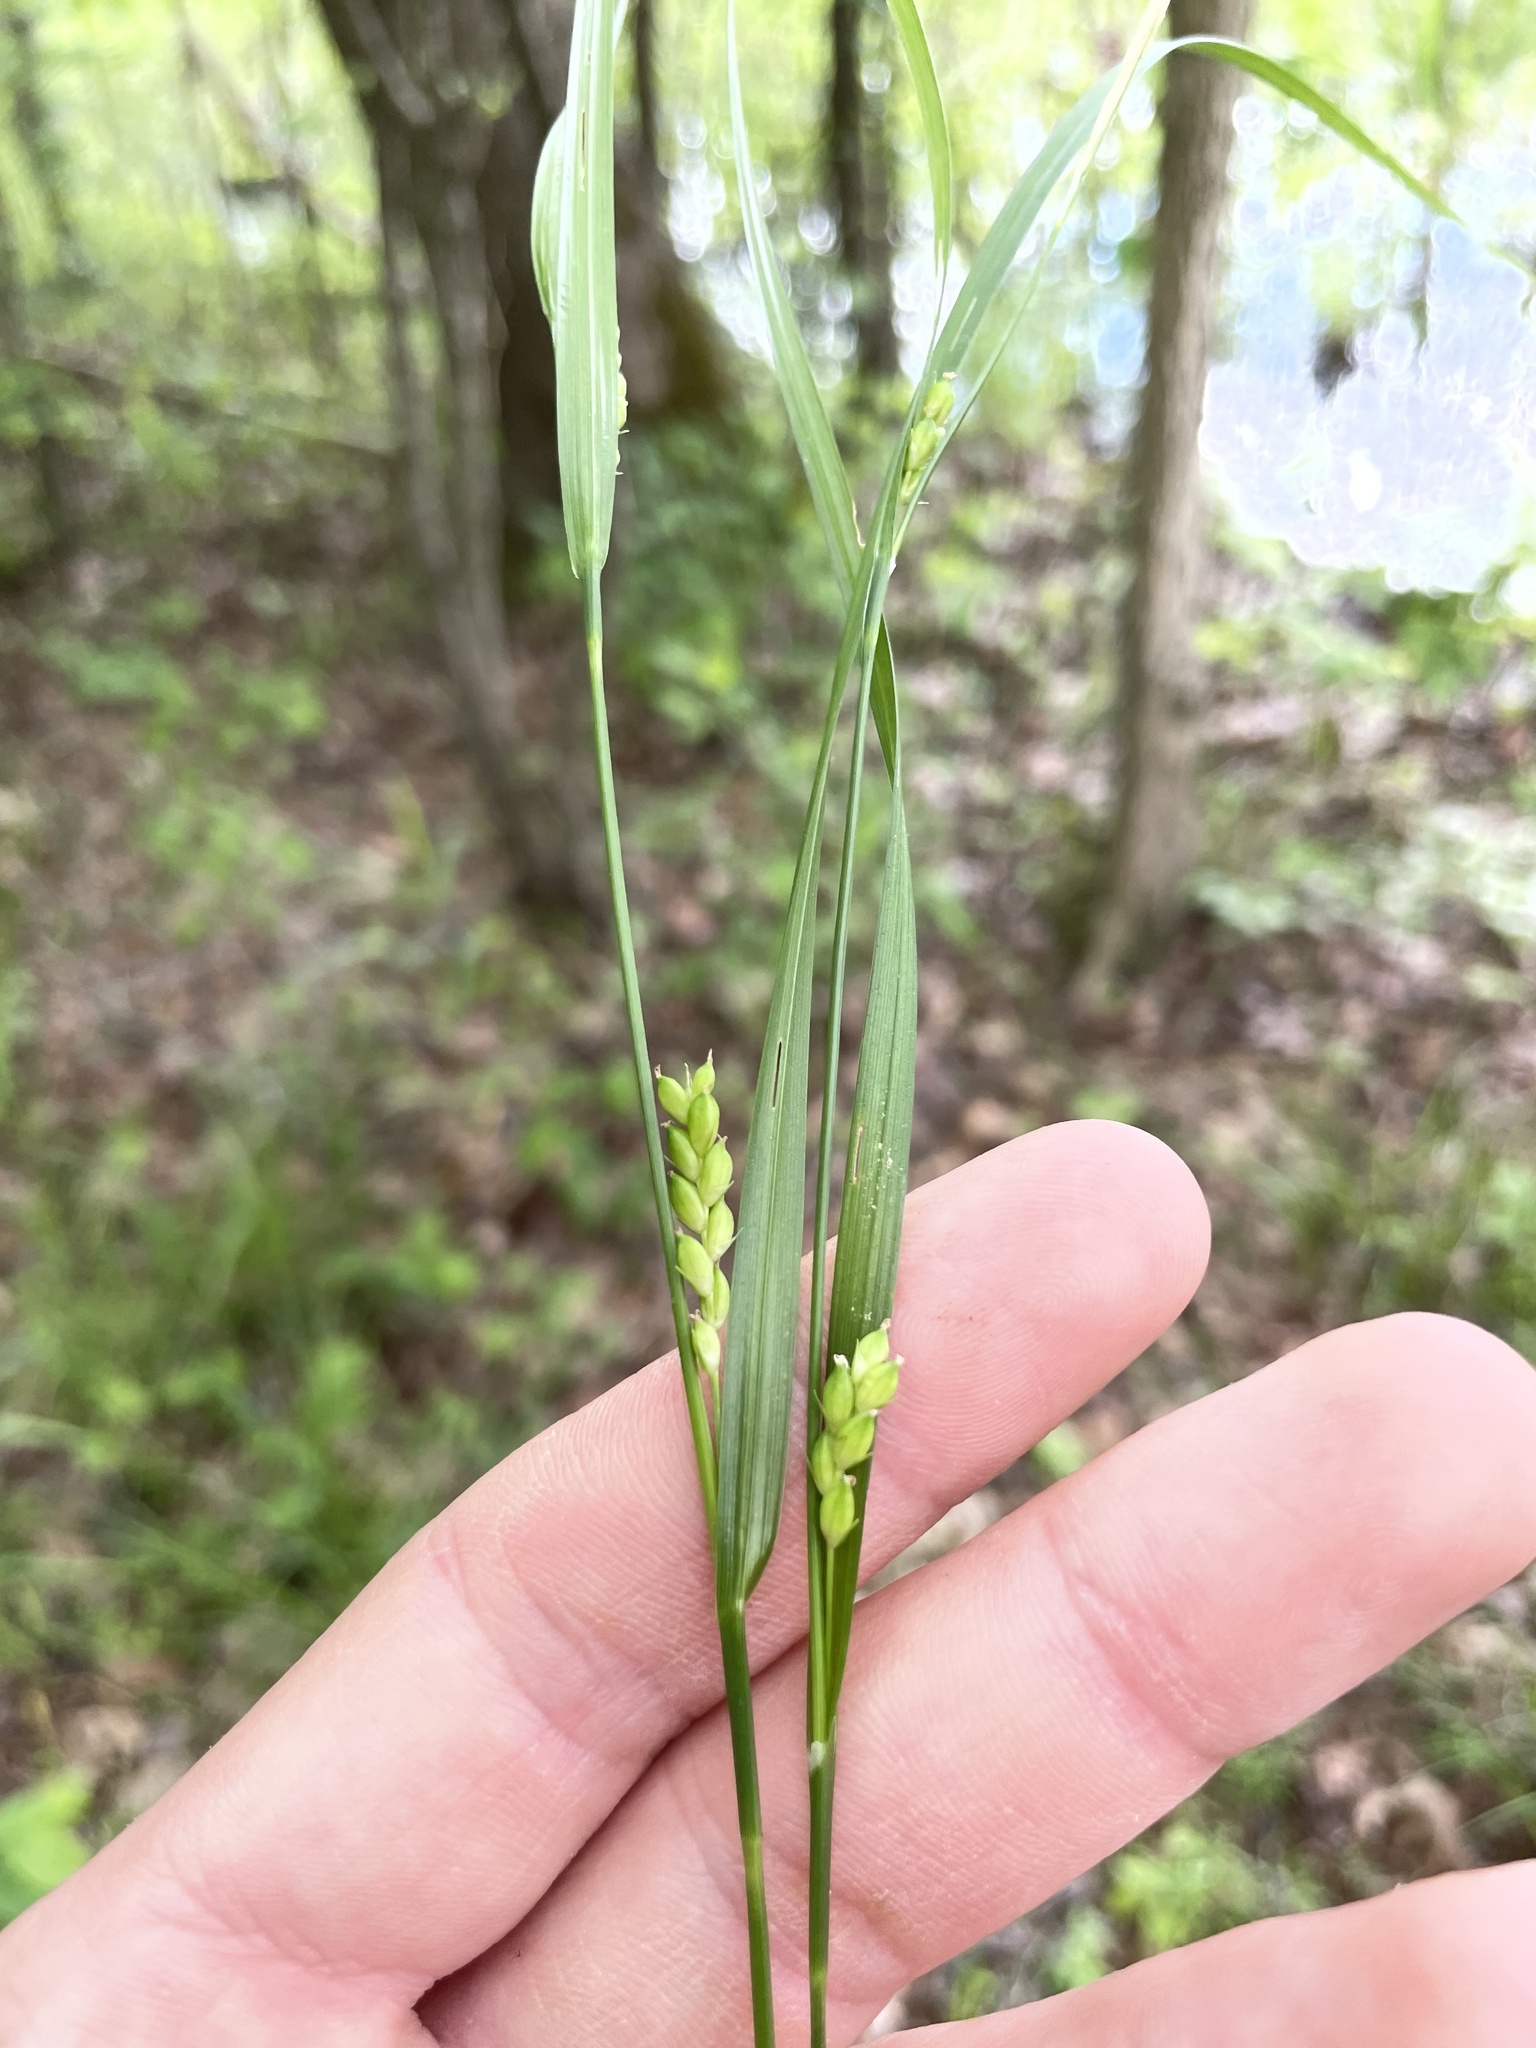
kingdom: Plantae
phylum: Tracheophyta
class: Liliopsida
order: Poales
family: Cyperaceae
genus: Carex
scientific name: Carex planispicata
